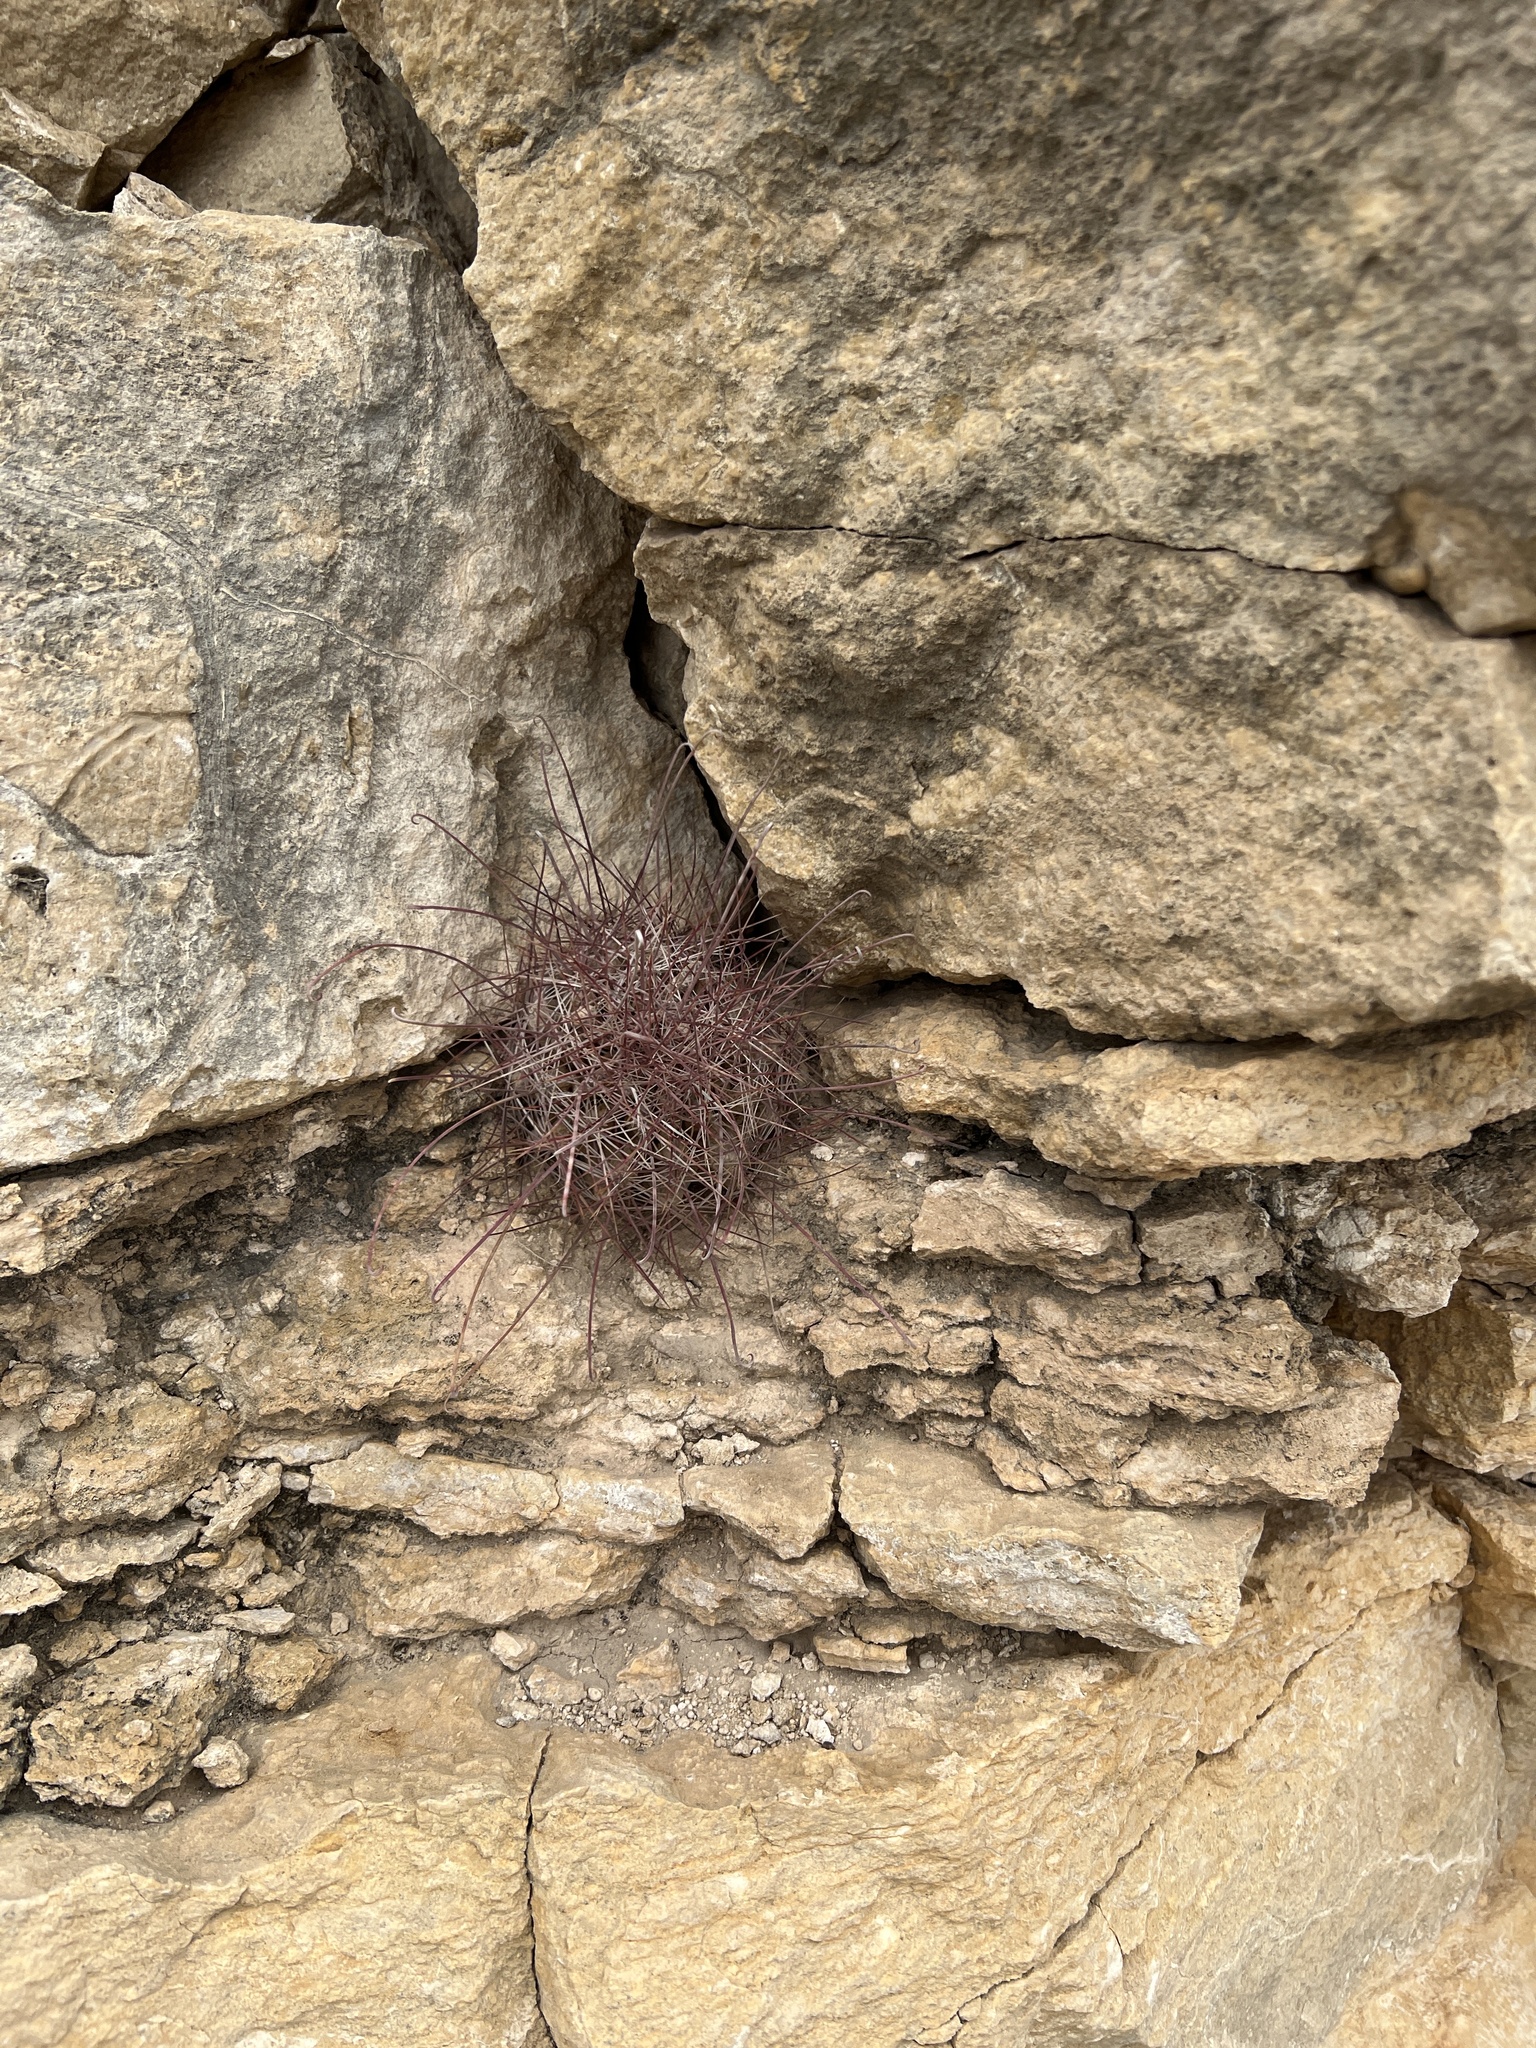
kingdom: Plantae
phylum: Tracheophyta
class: Magnoliopsida
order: Caryophyllales
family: Cactaceae
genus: Bisnaga
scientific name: Bisnaga hamatacantha
